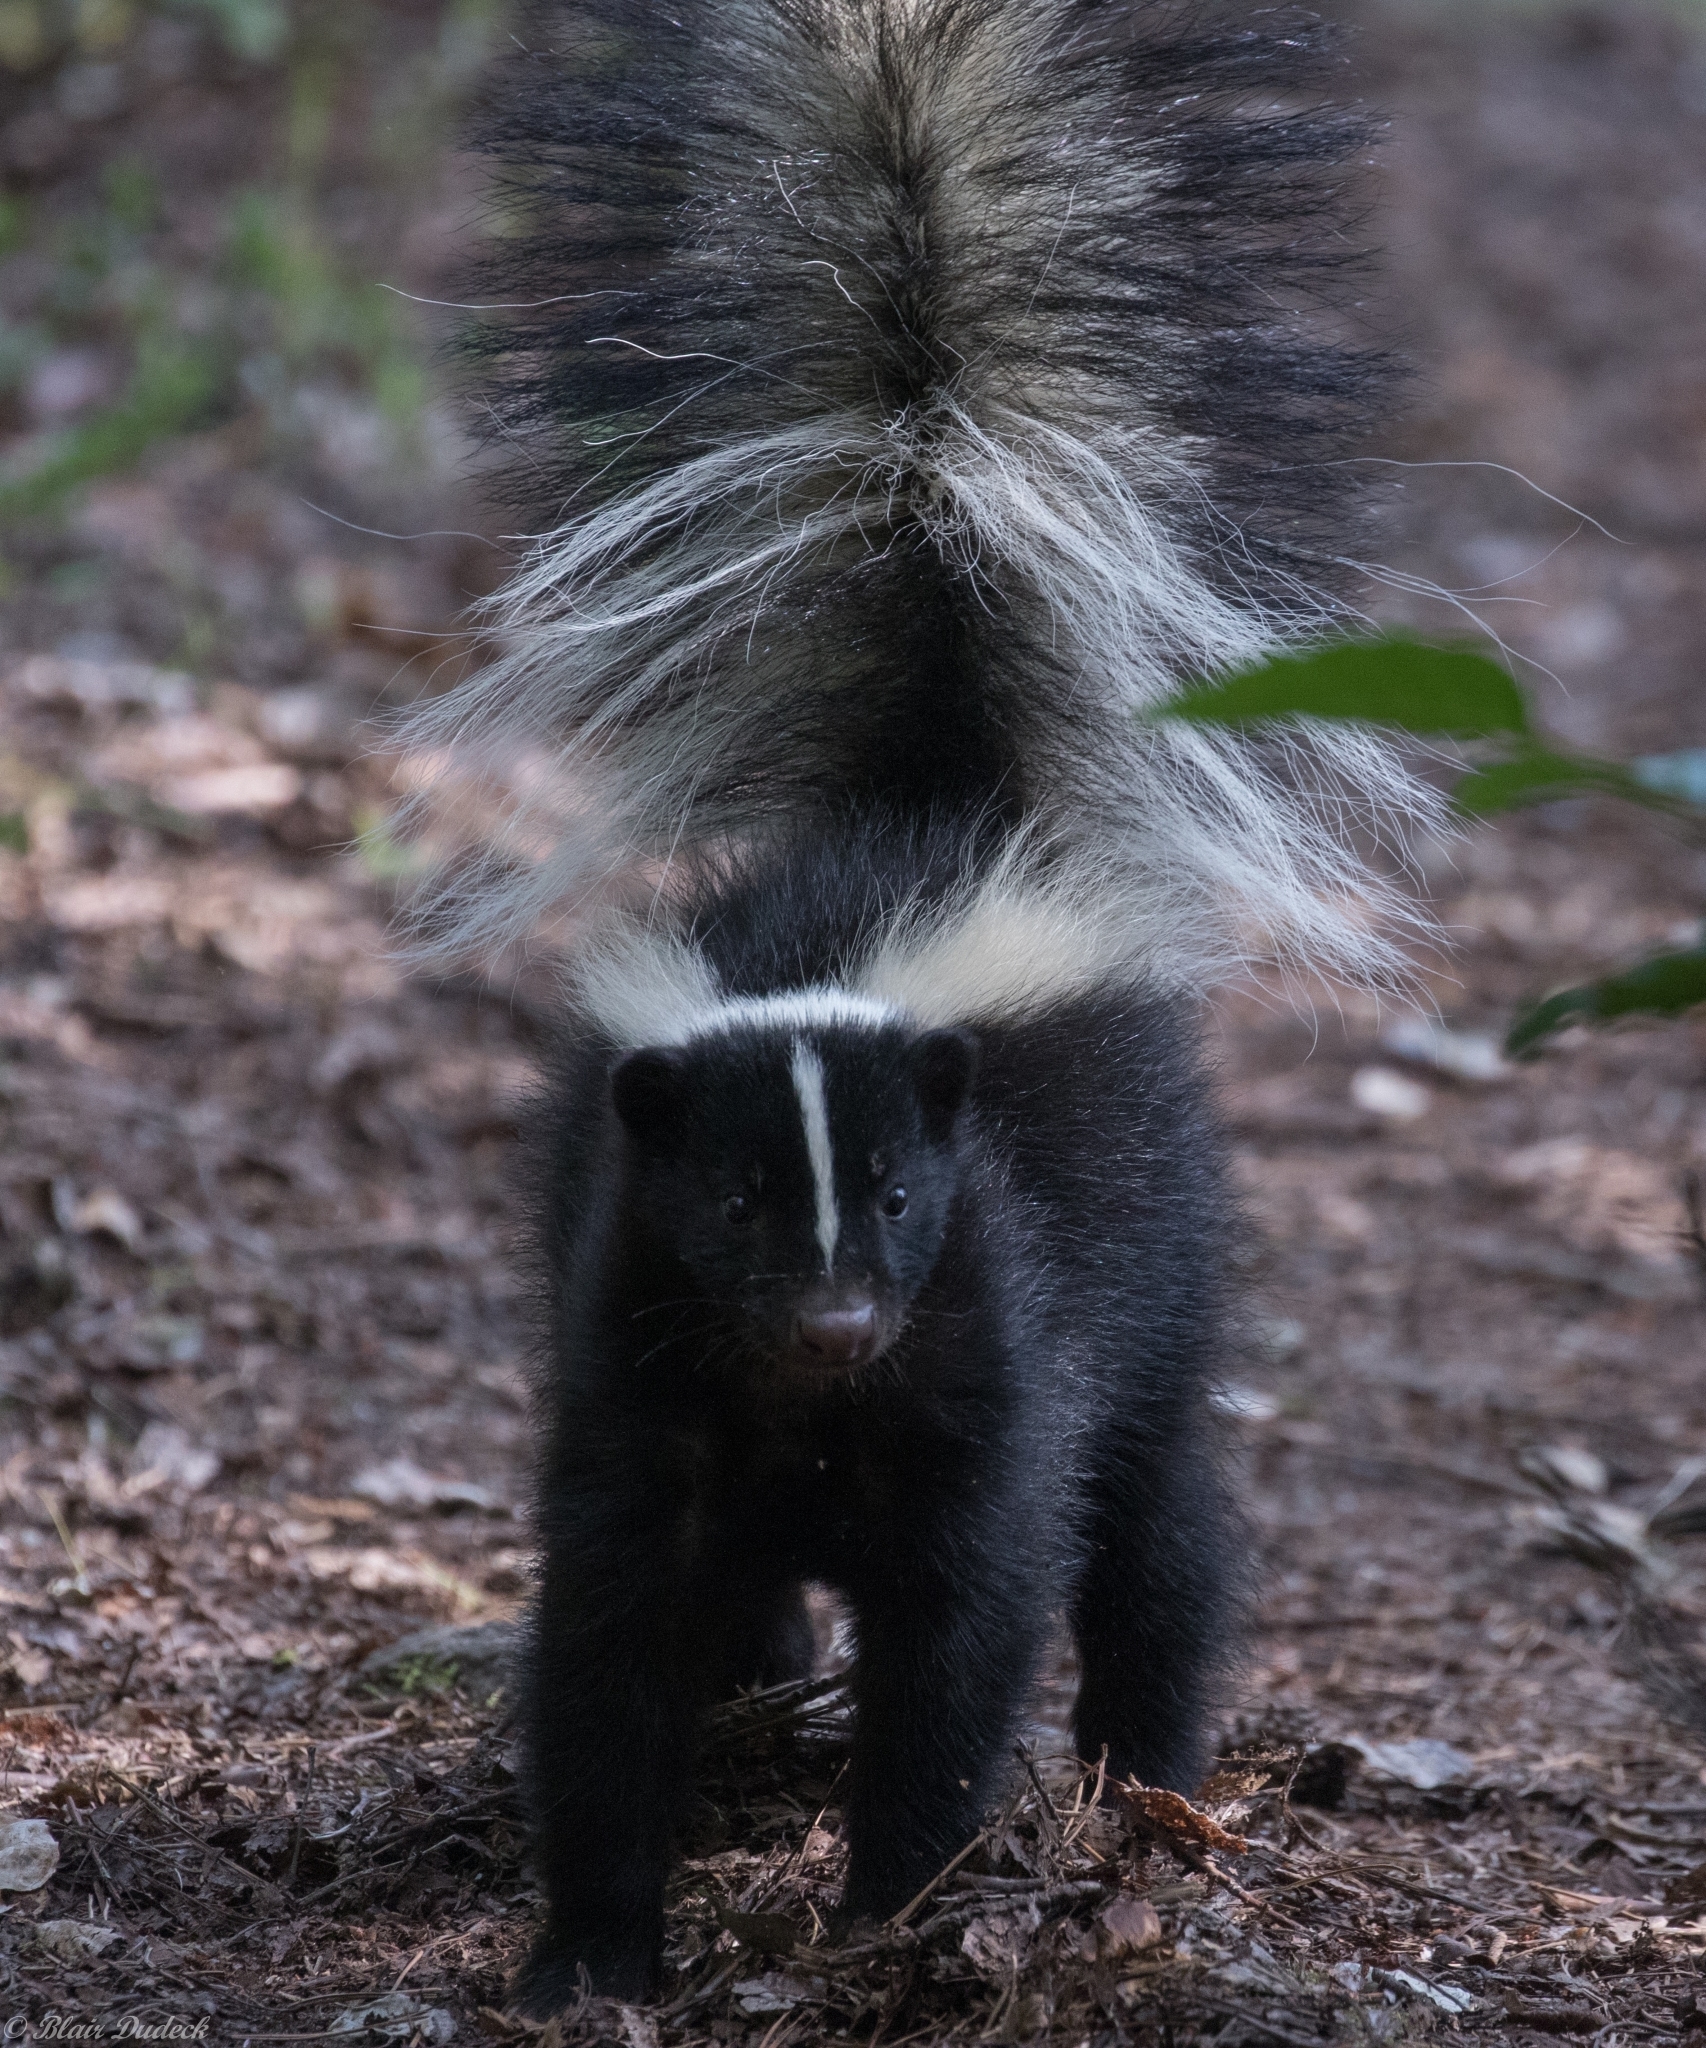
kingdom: Animalia
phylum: Chordata
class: Mammalia
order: Carnivora
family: Mephitidae
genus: Mephitis
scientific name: Mephitis mephitis
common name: Striped skunk
